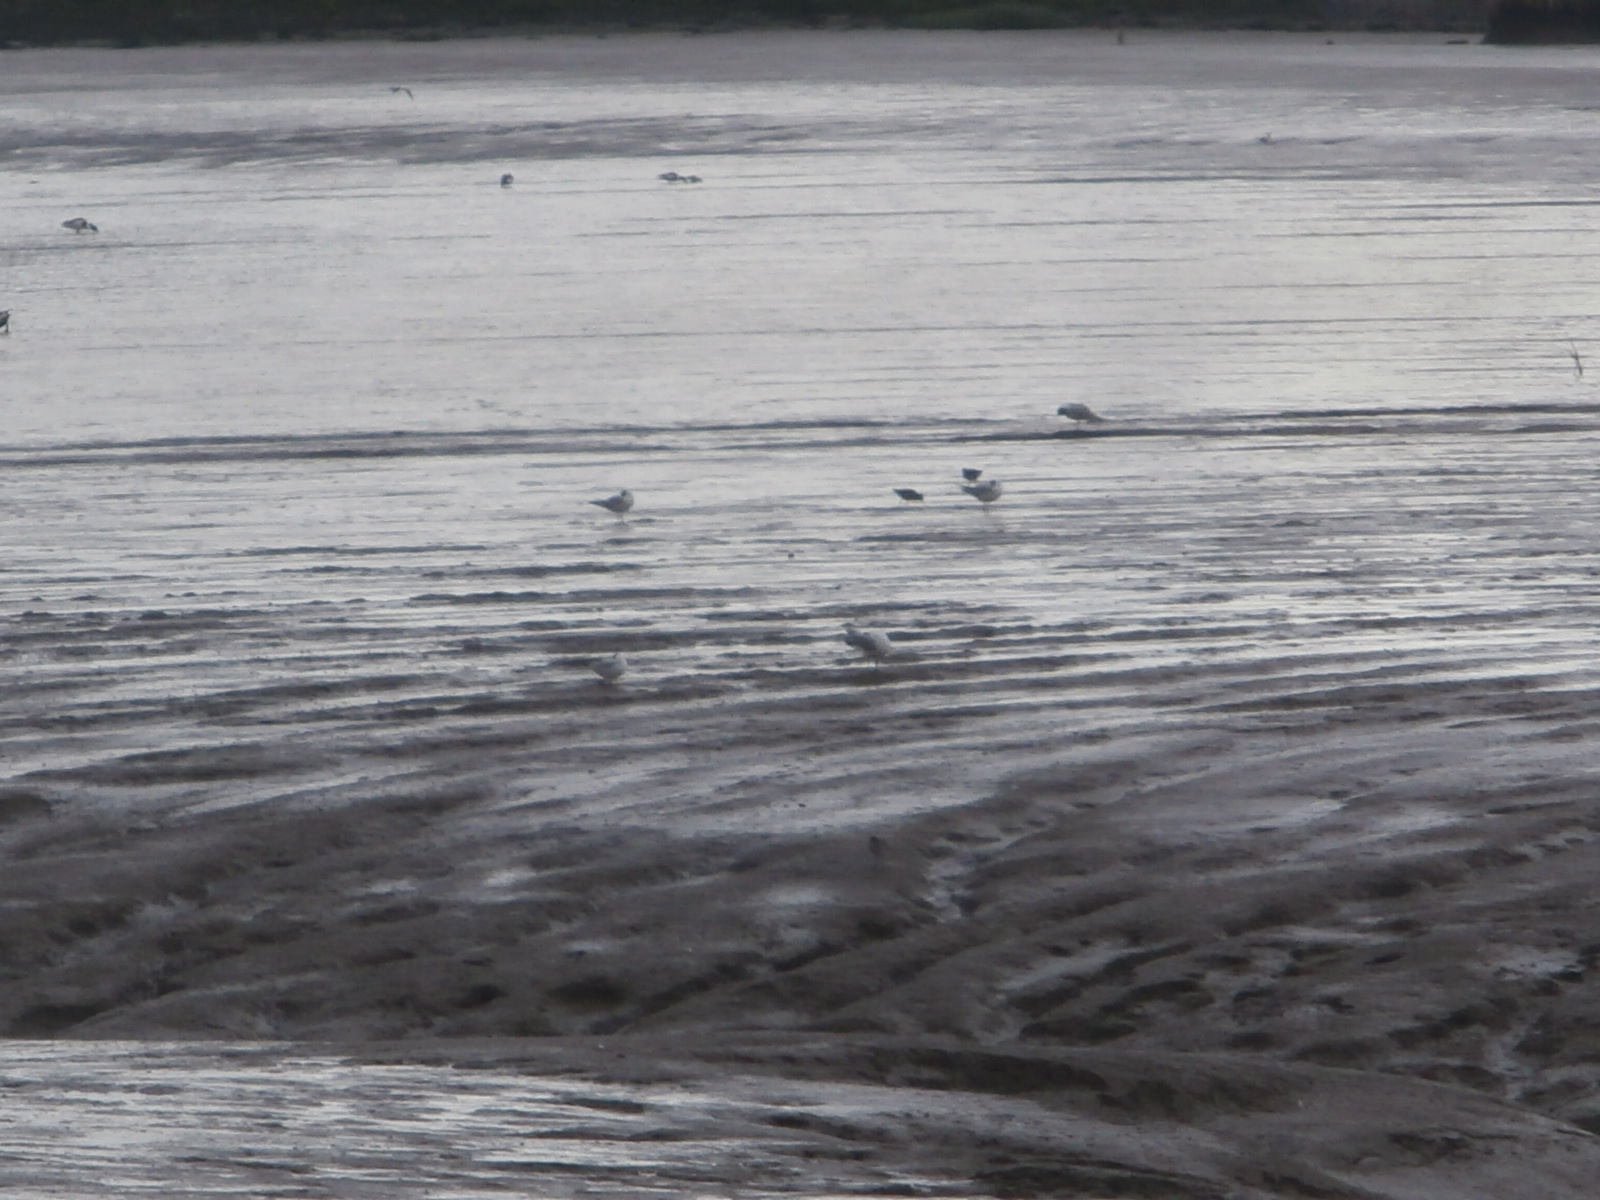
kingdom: Animalia
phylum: Chordata
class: Aves
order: Charadriiformes
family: Laridae
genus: Chroicocephalus
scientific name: Chroicocephalus ridibundus
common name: Black-headed gull
